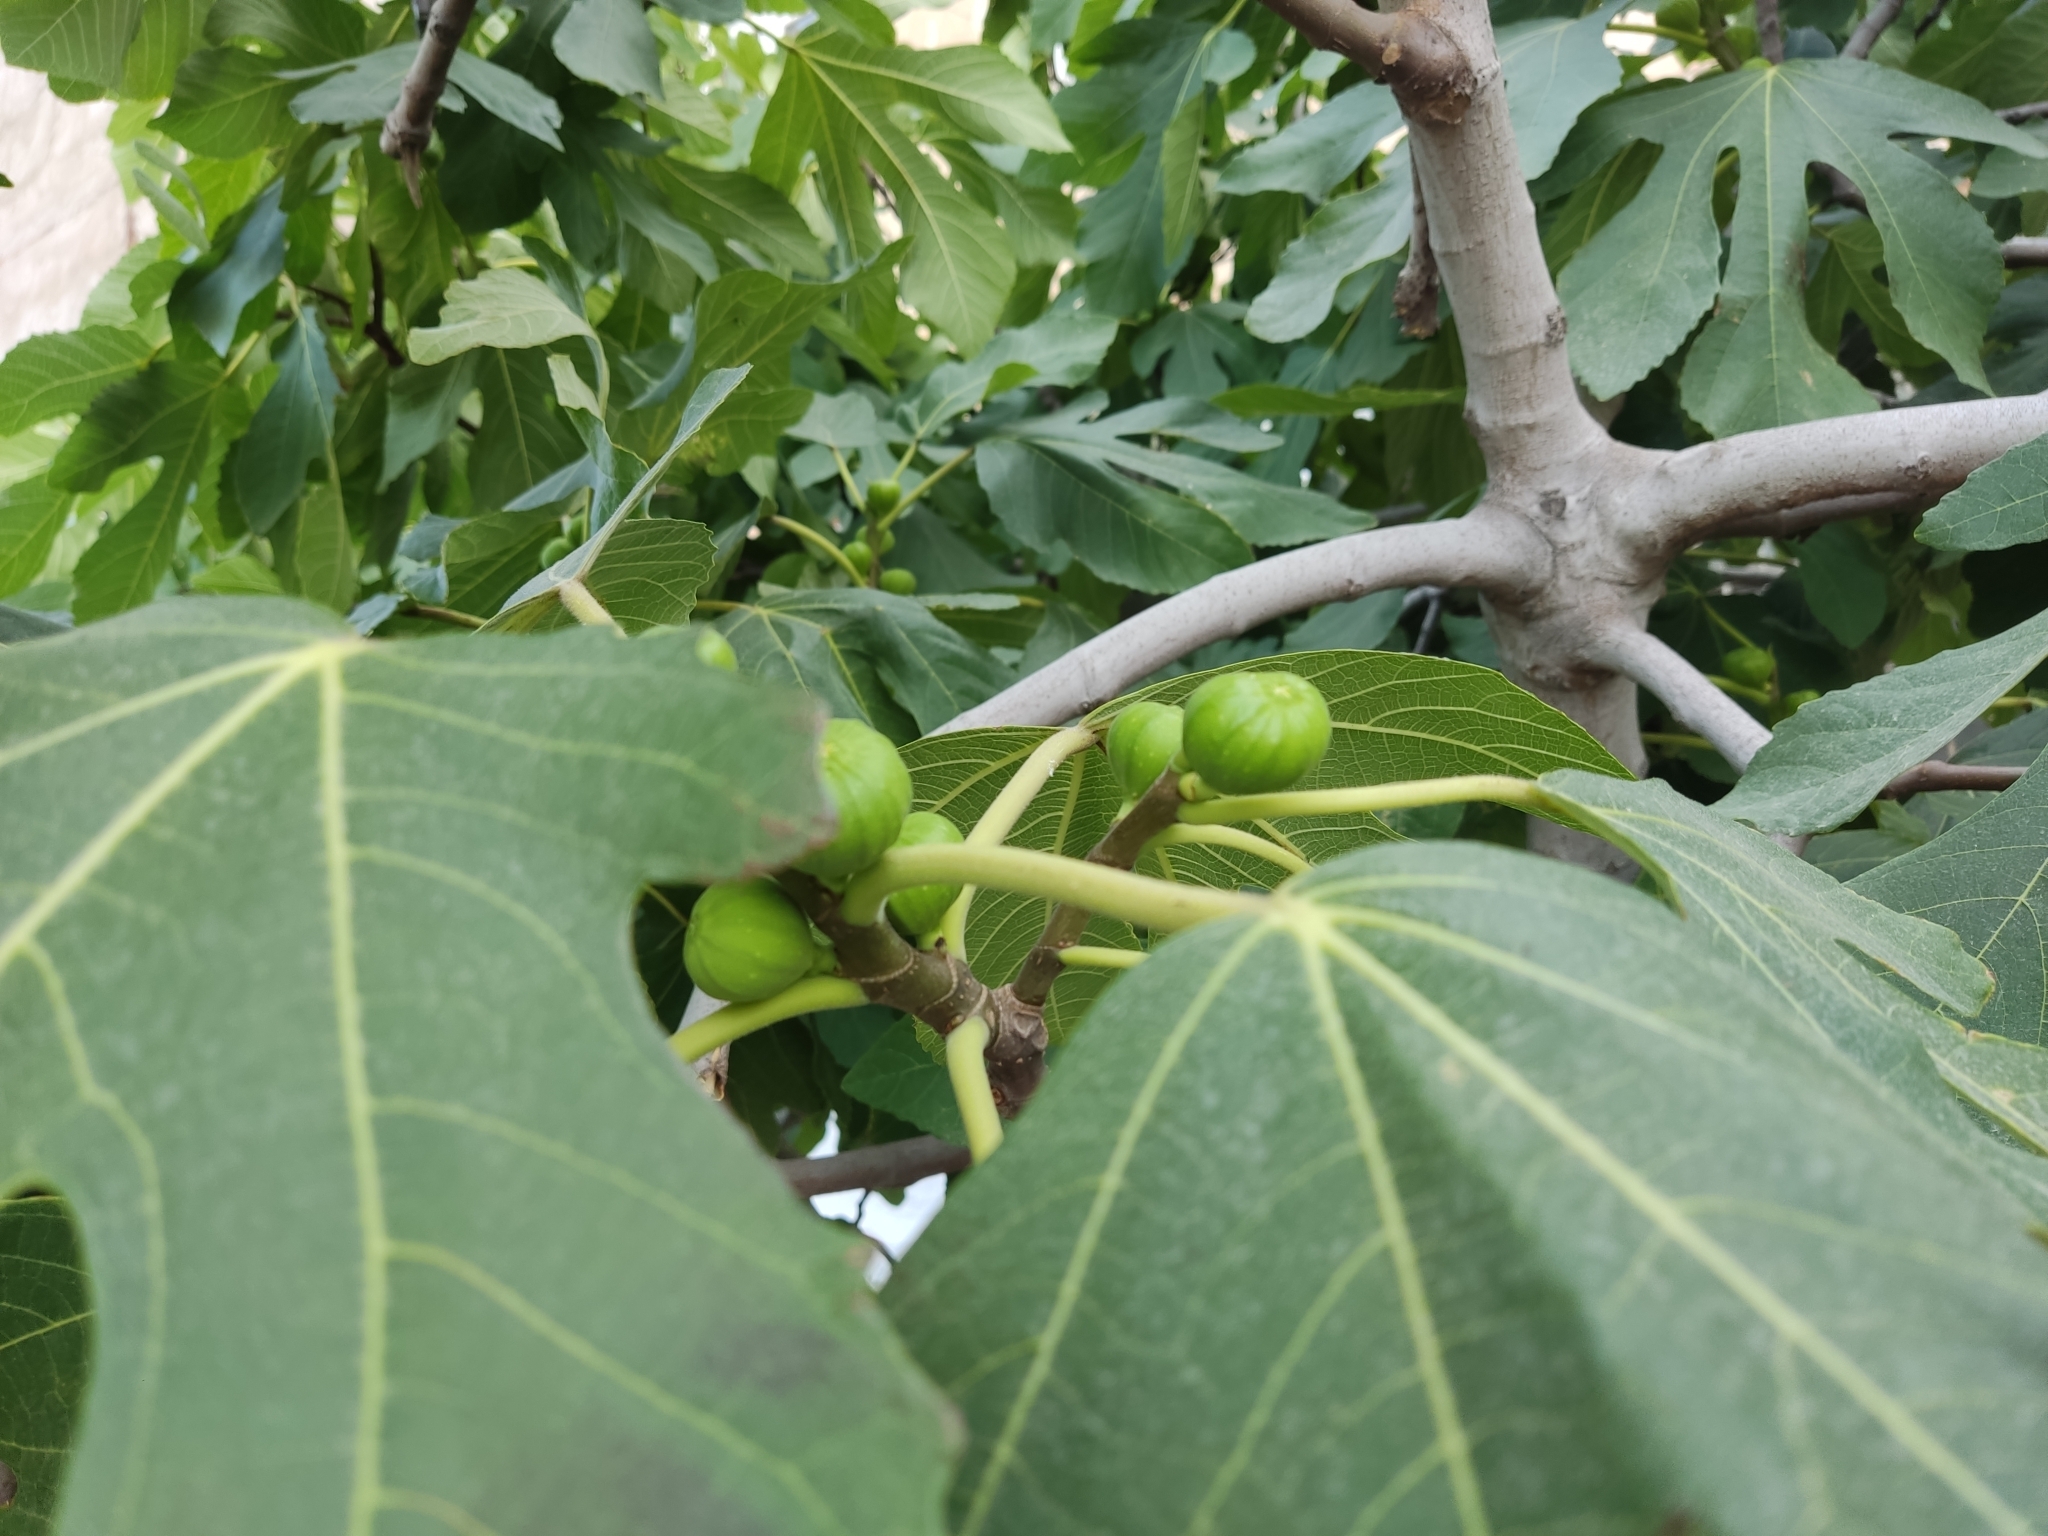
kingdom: Plantae
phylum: Tracheophyta
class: Magnoliopsida
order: Rosales
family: Moraceae
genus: Ficus
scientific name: Ficus carica
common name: Fig
